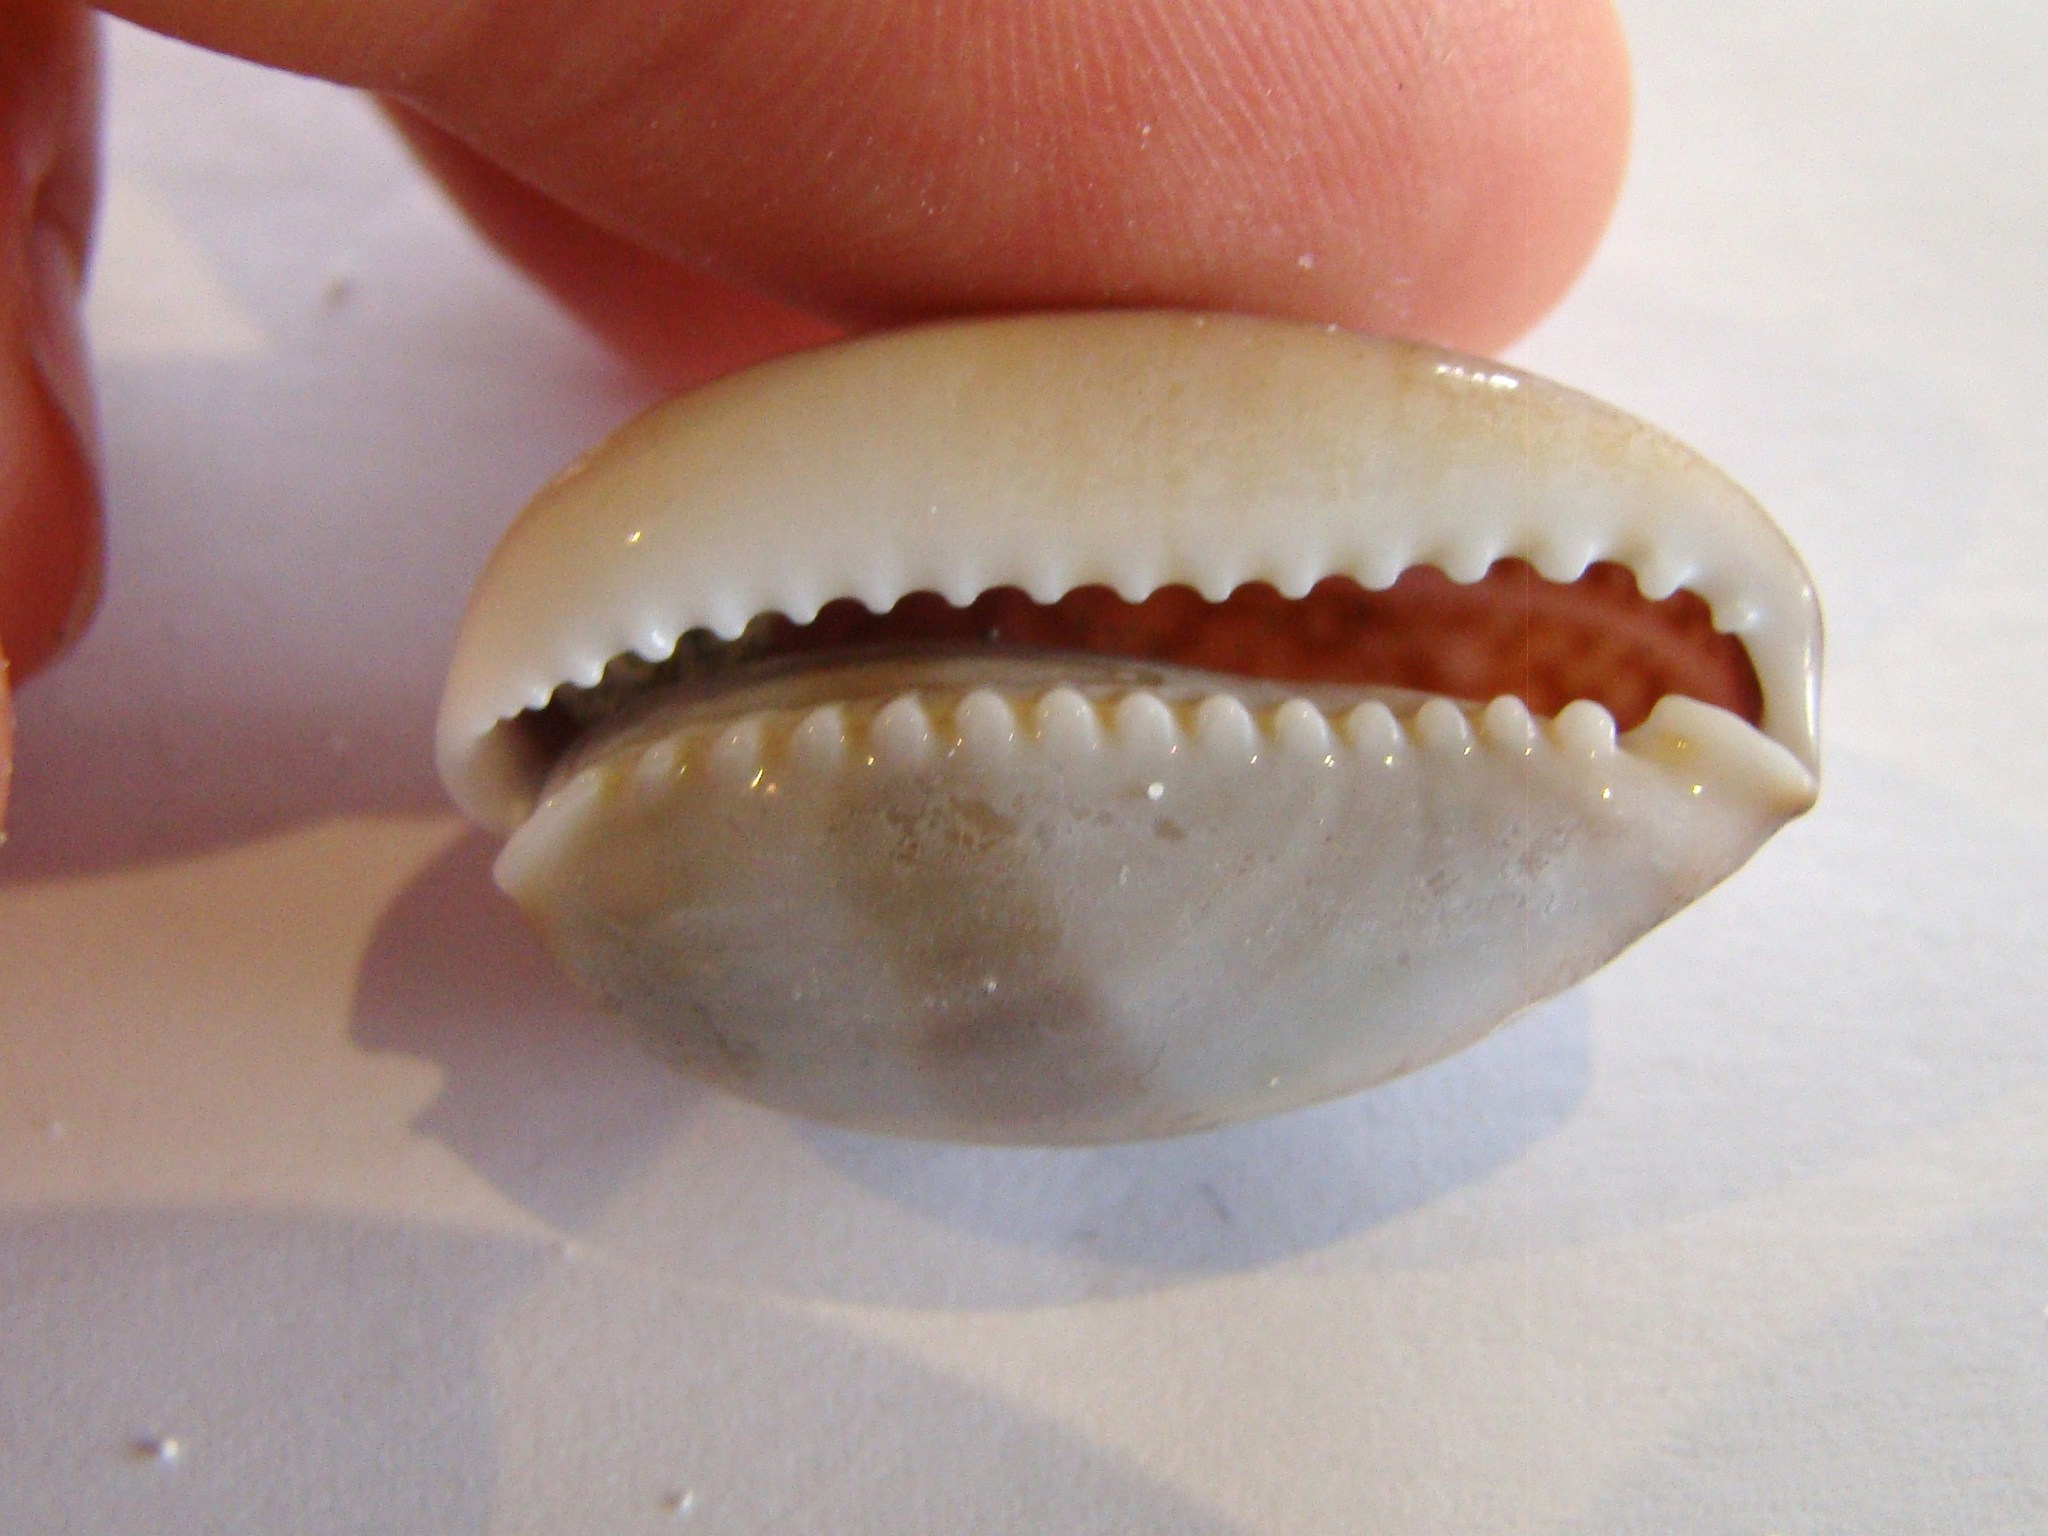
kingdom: Animalia
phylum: Mollusca
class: Gastropoda
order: Littorinimorpha
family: Cypraeidae
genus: Monetaria
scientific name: Monetaria caputserpentis
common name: Serpent's head cowrie
